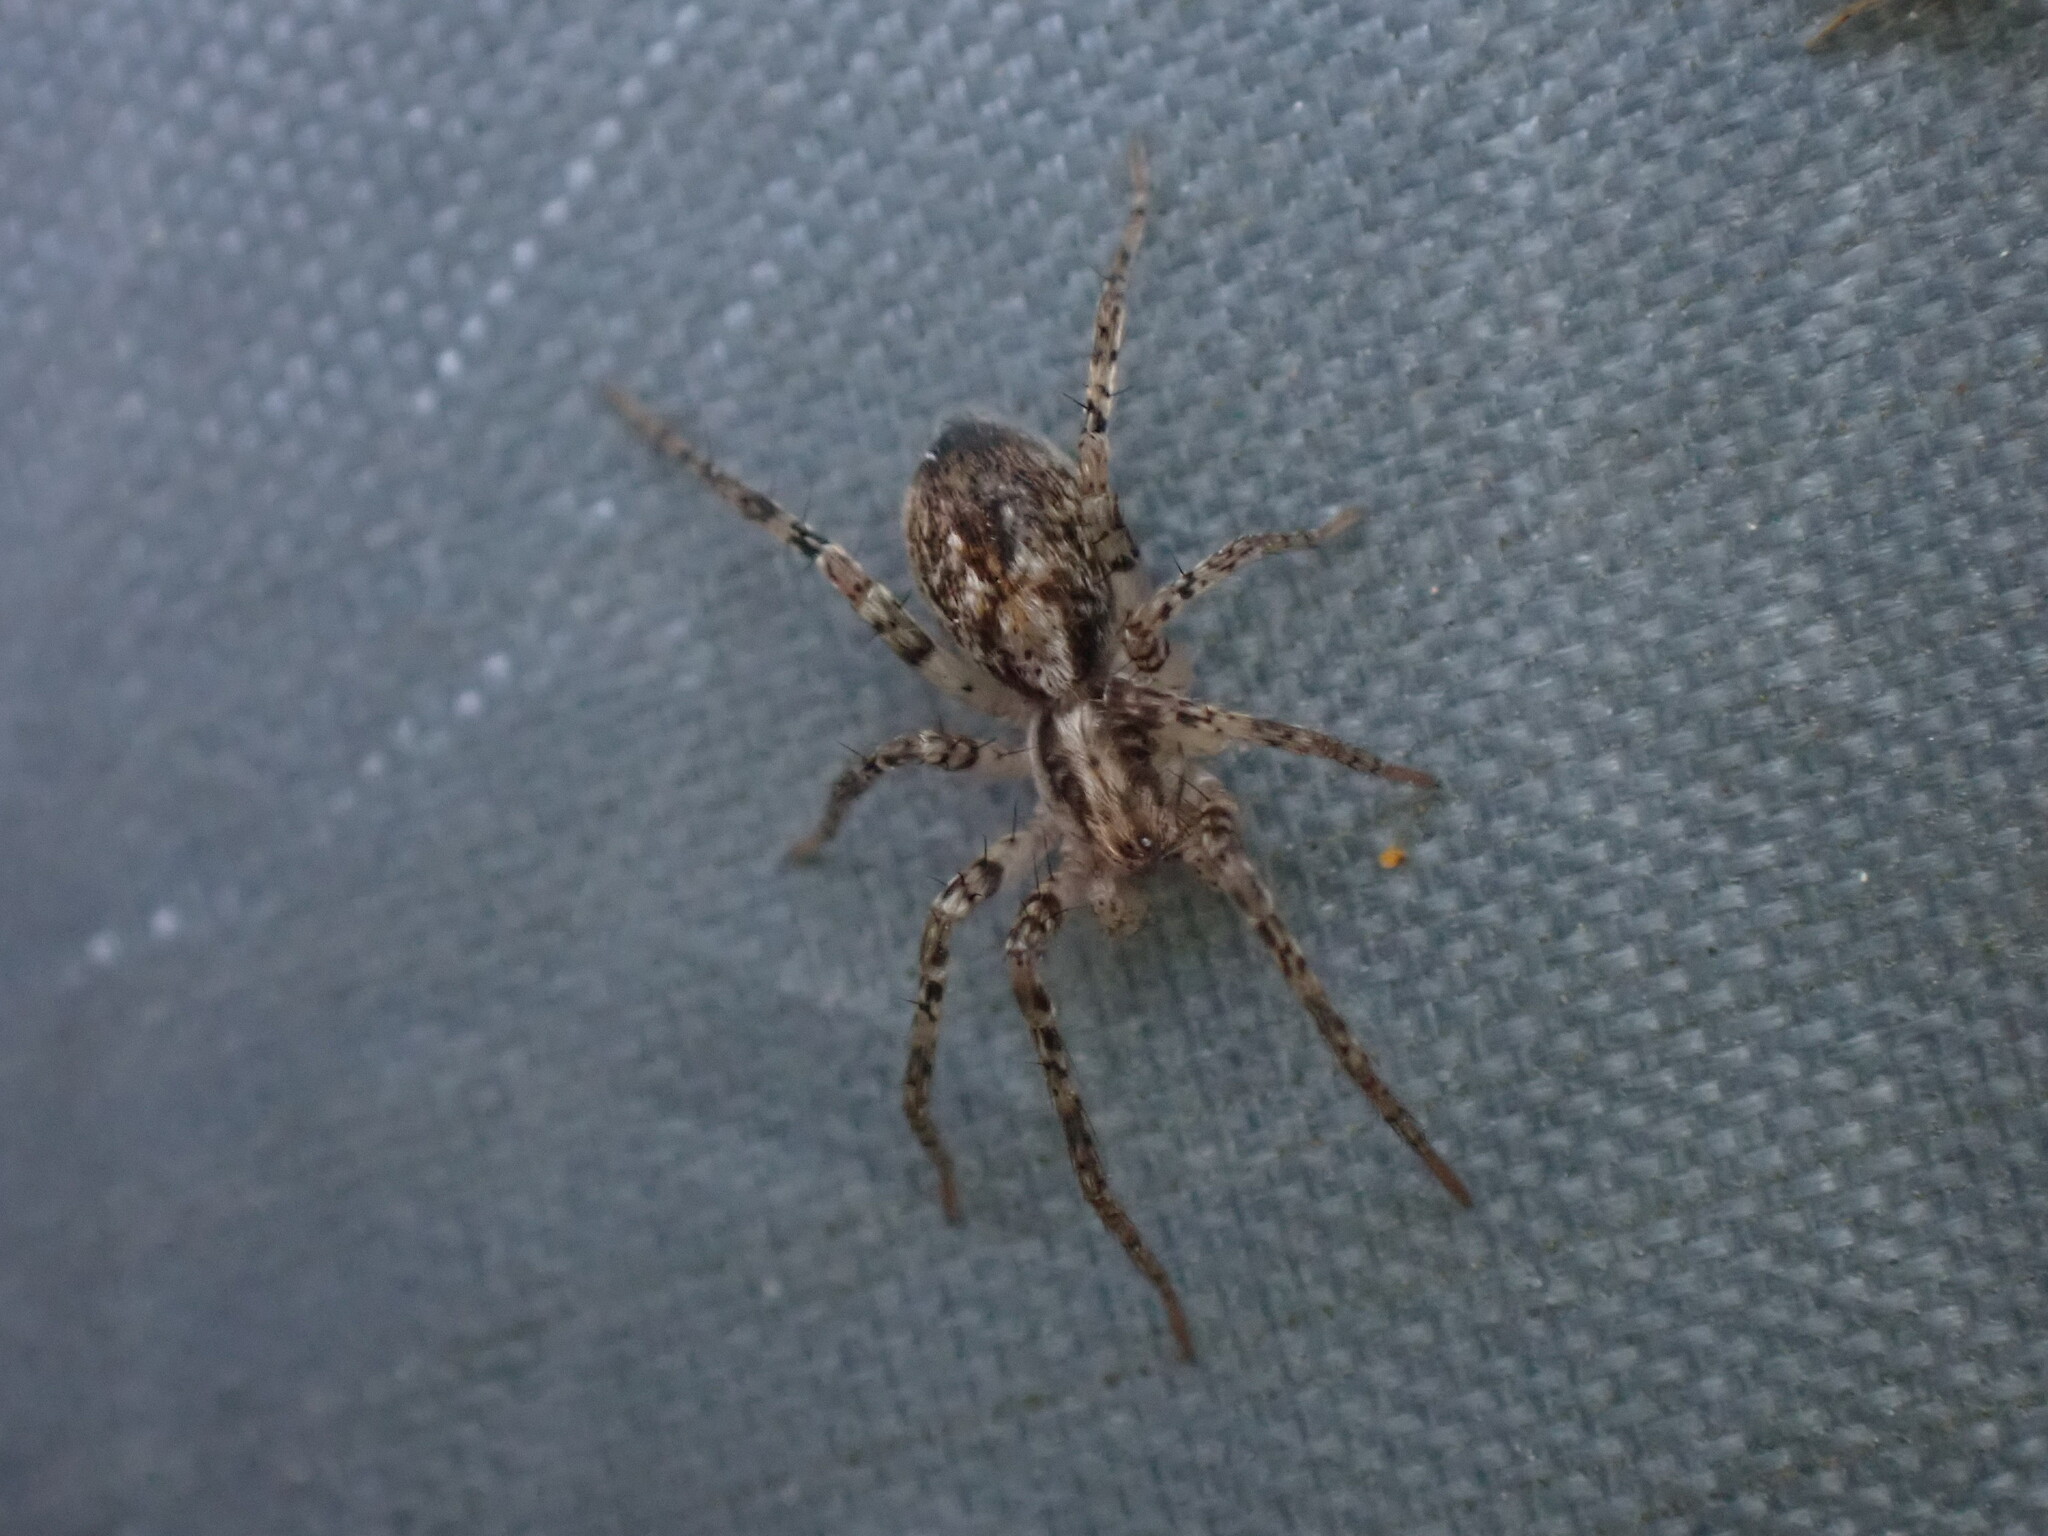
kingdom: Animalia
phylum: Arthropoda
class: Arachnida
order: Araneae
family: Anyphaenidae
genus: Anyphaena
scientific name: Anyphaena accentuata
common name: Buzzing spider
